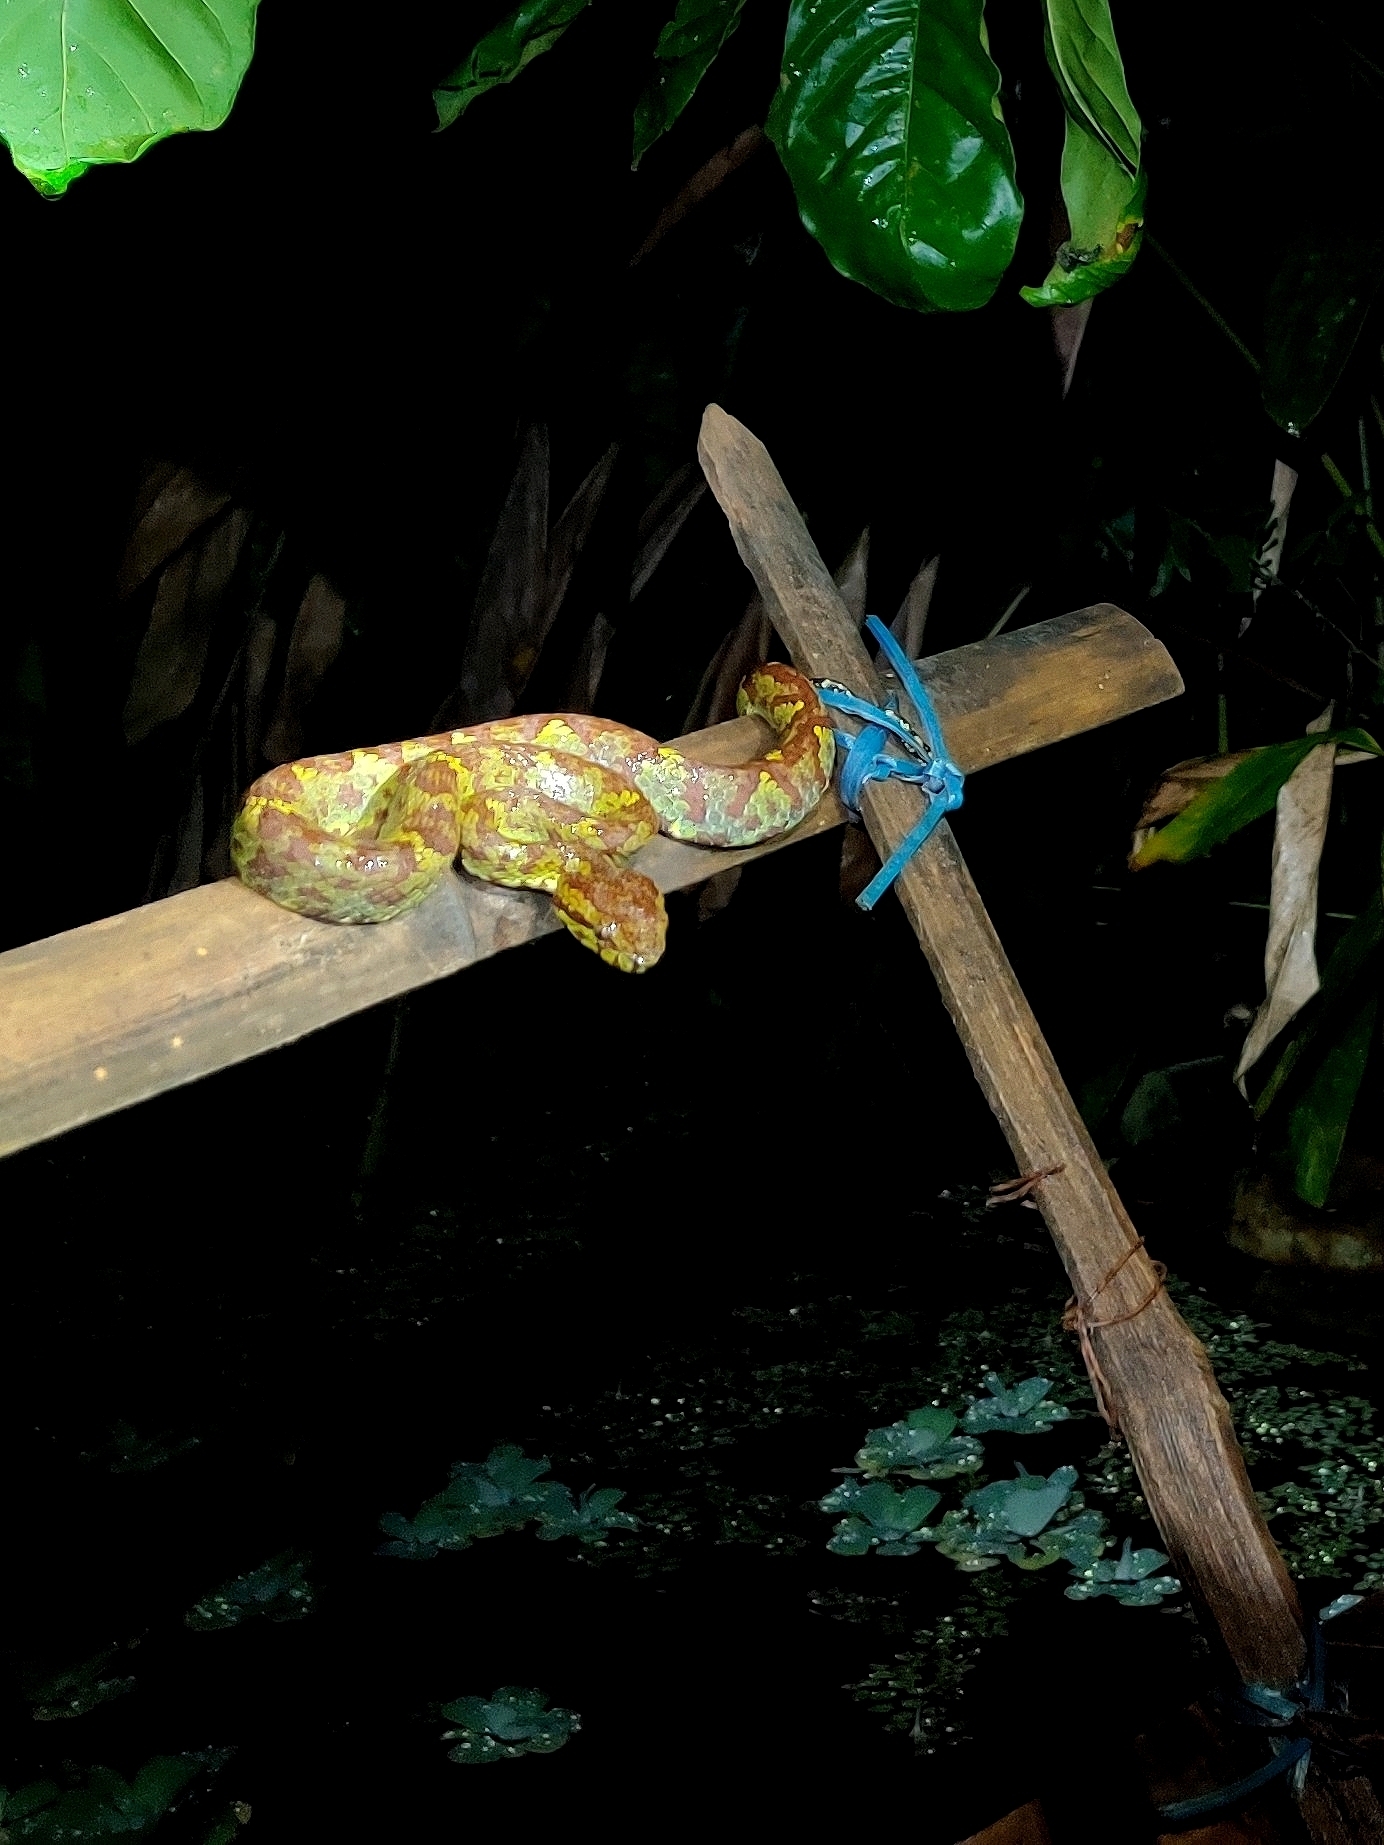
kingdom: Animalia
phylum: Chordata
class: Squamata
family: Viperidae
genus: Craspedocephalus
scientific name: Craspedocephalus malabaricus
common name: Malabarian pit viper
